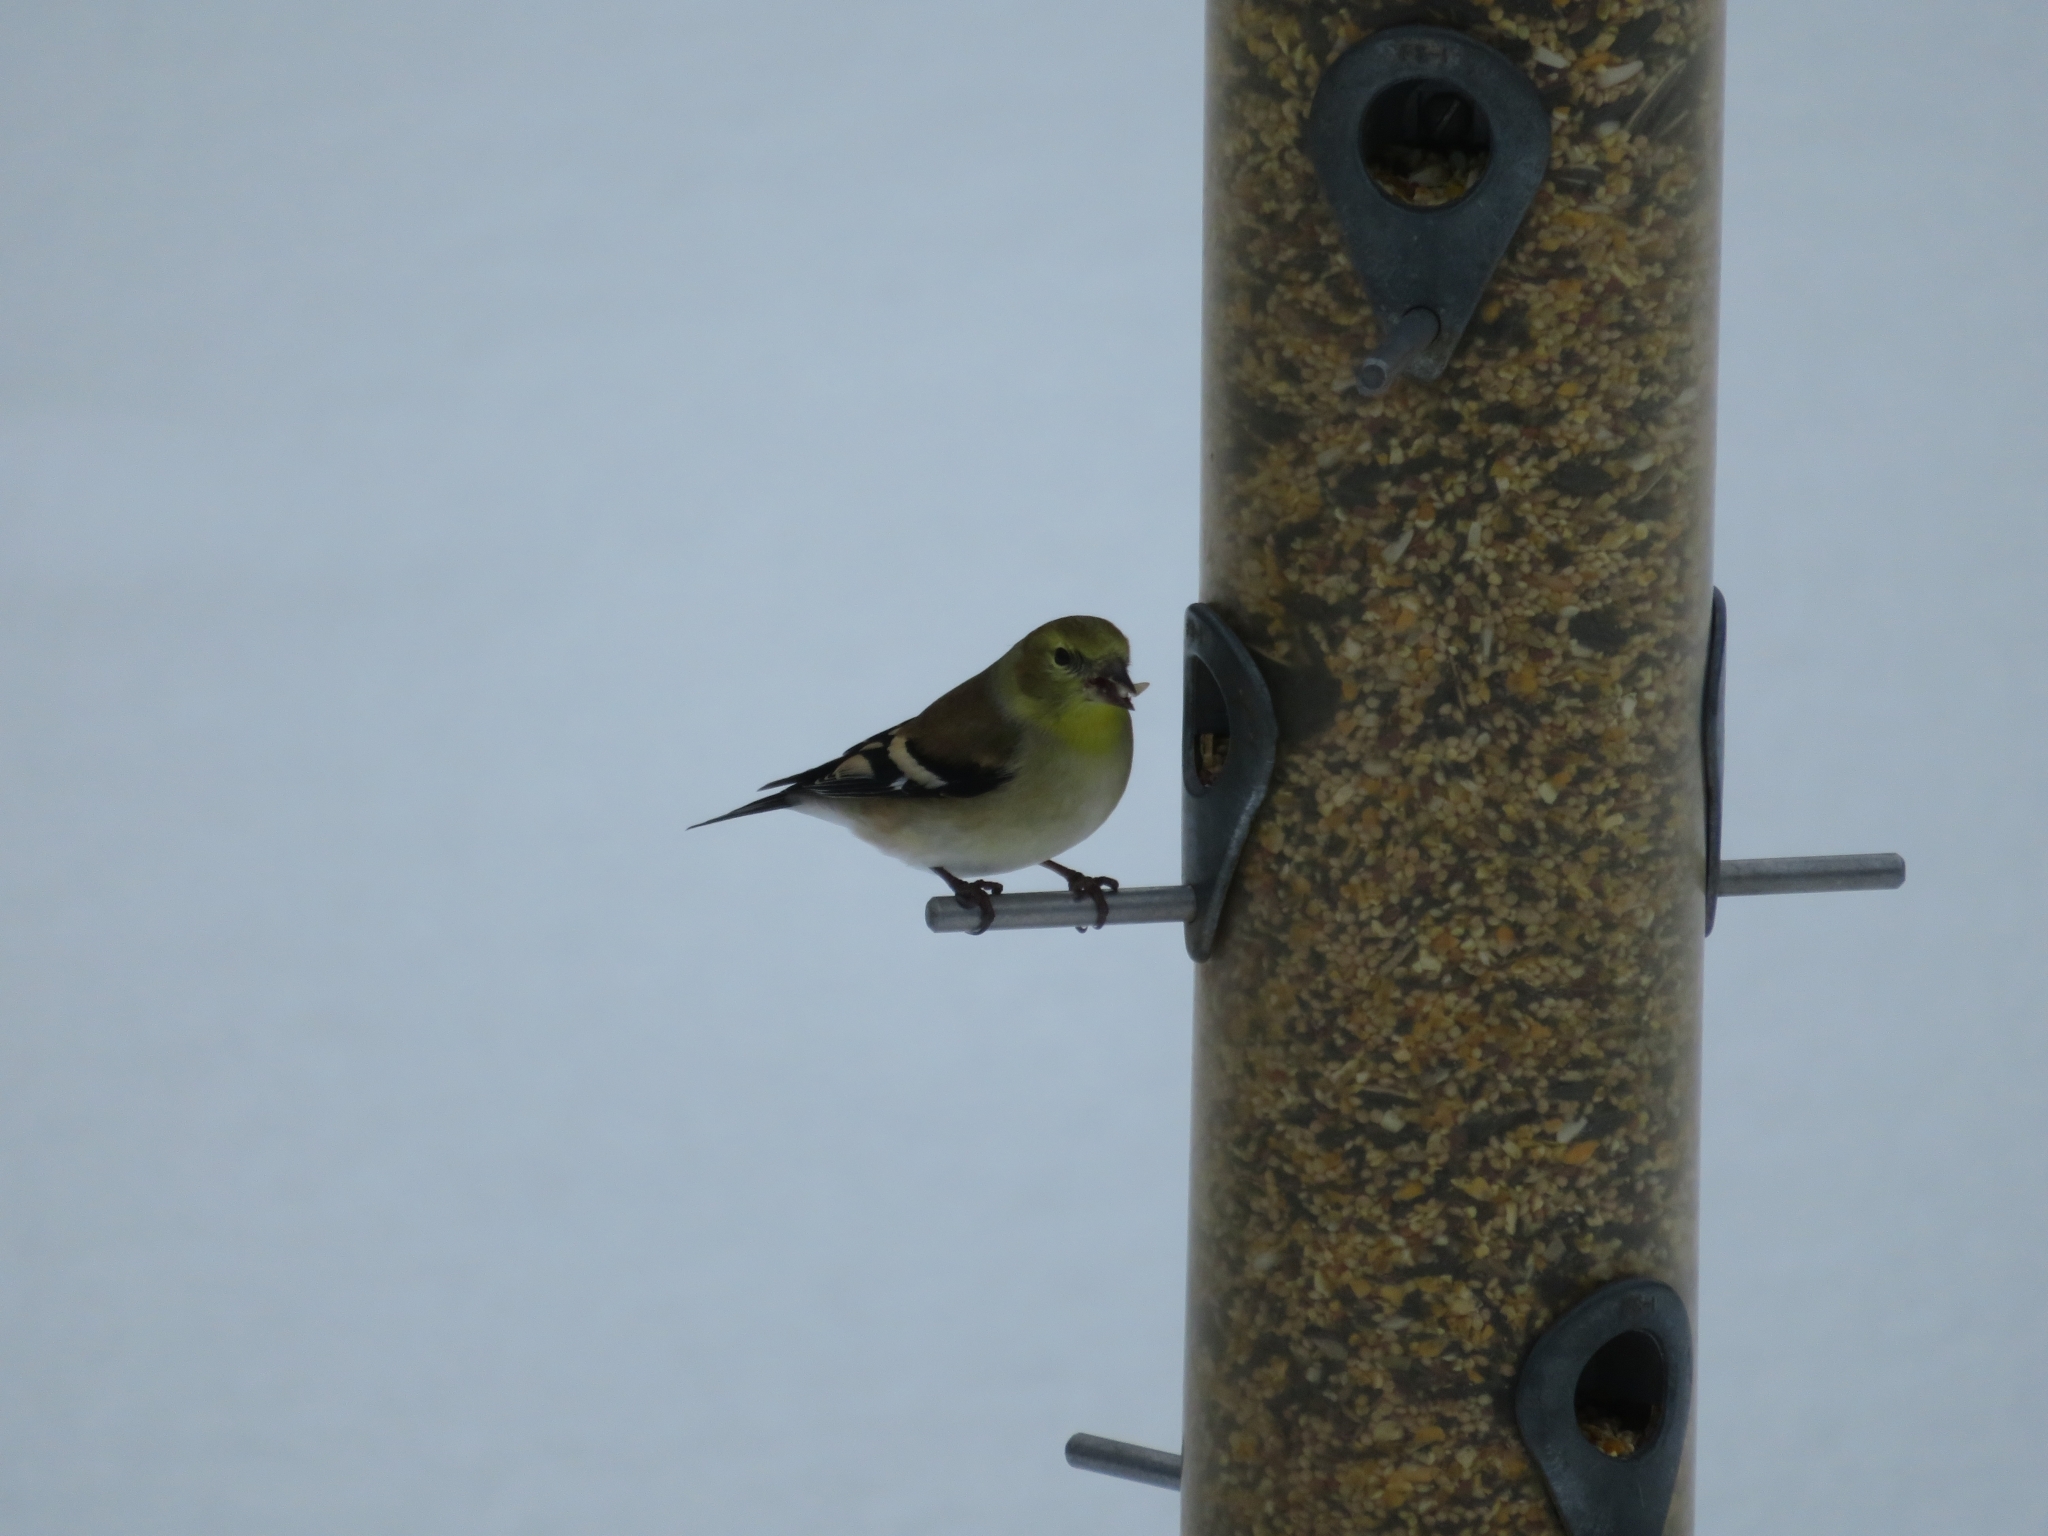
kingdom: Animalia
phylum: Chordata
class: Aves
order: Passeriformes
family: Fringillidae
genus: Spinus
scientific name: Spinus tristis
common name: American goldfinch
